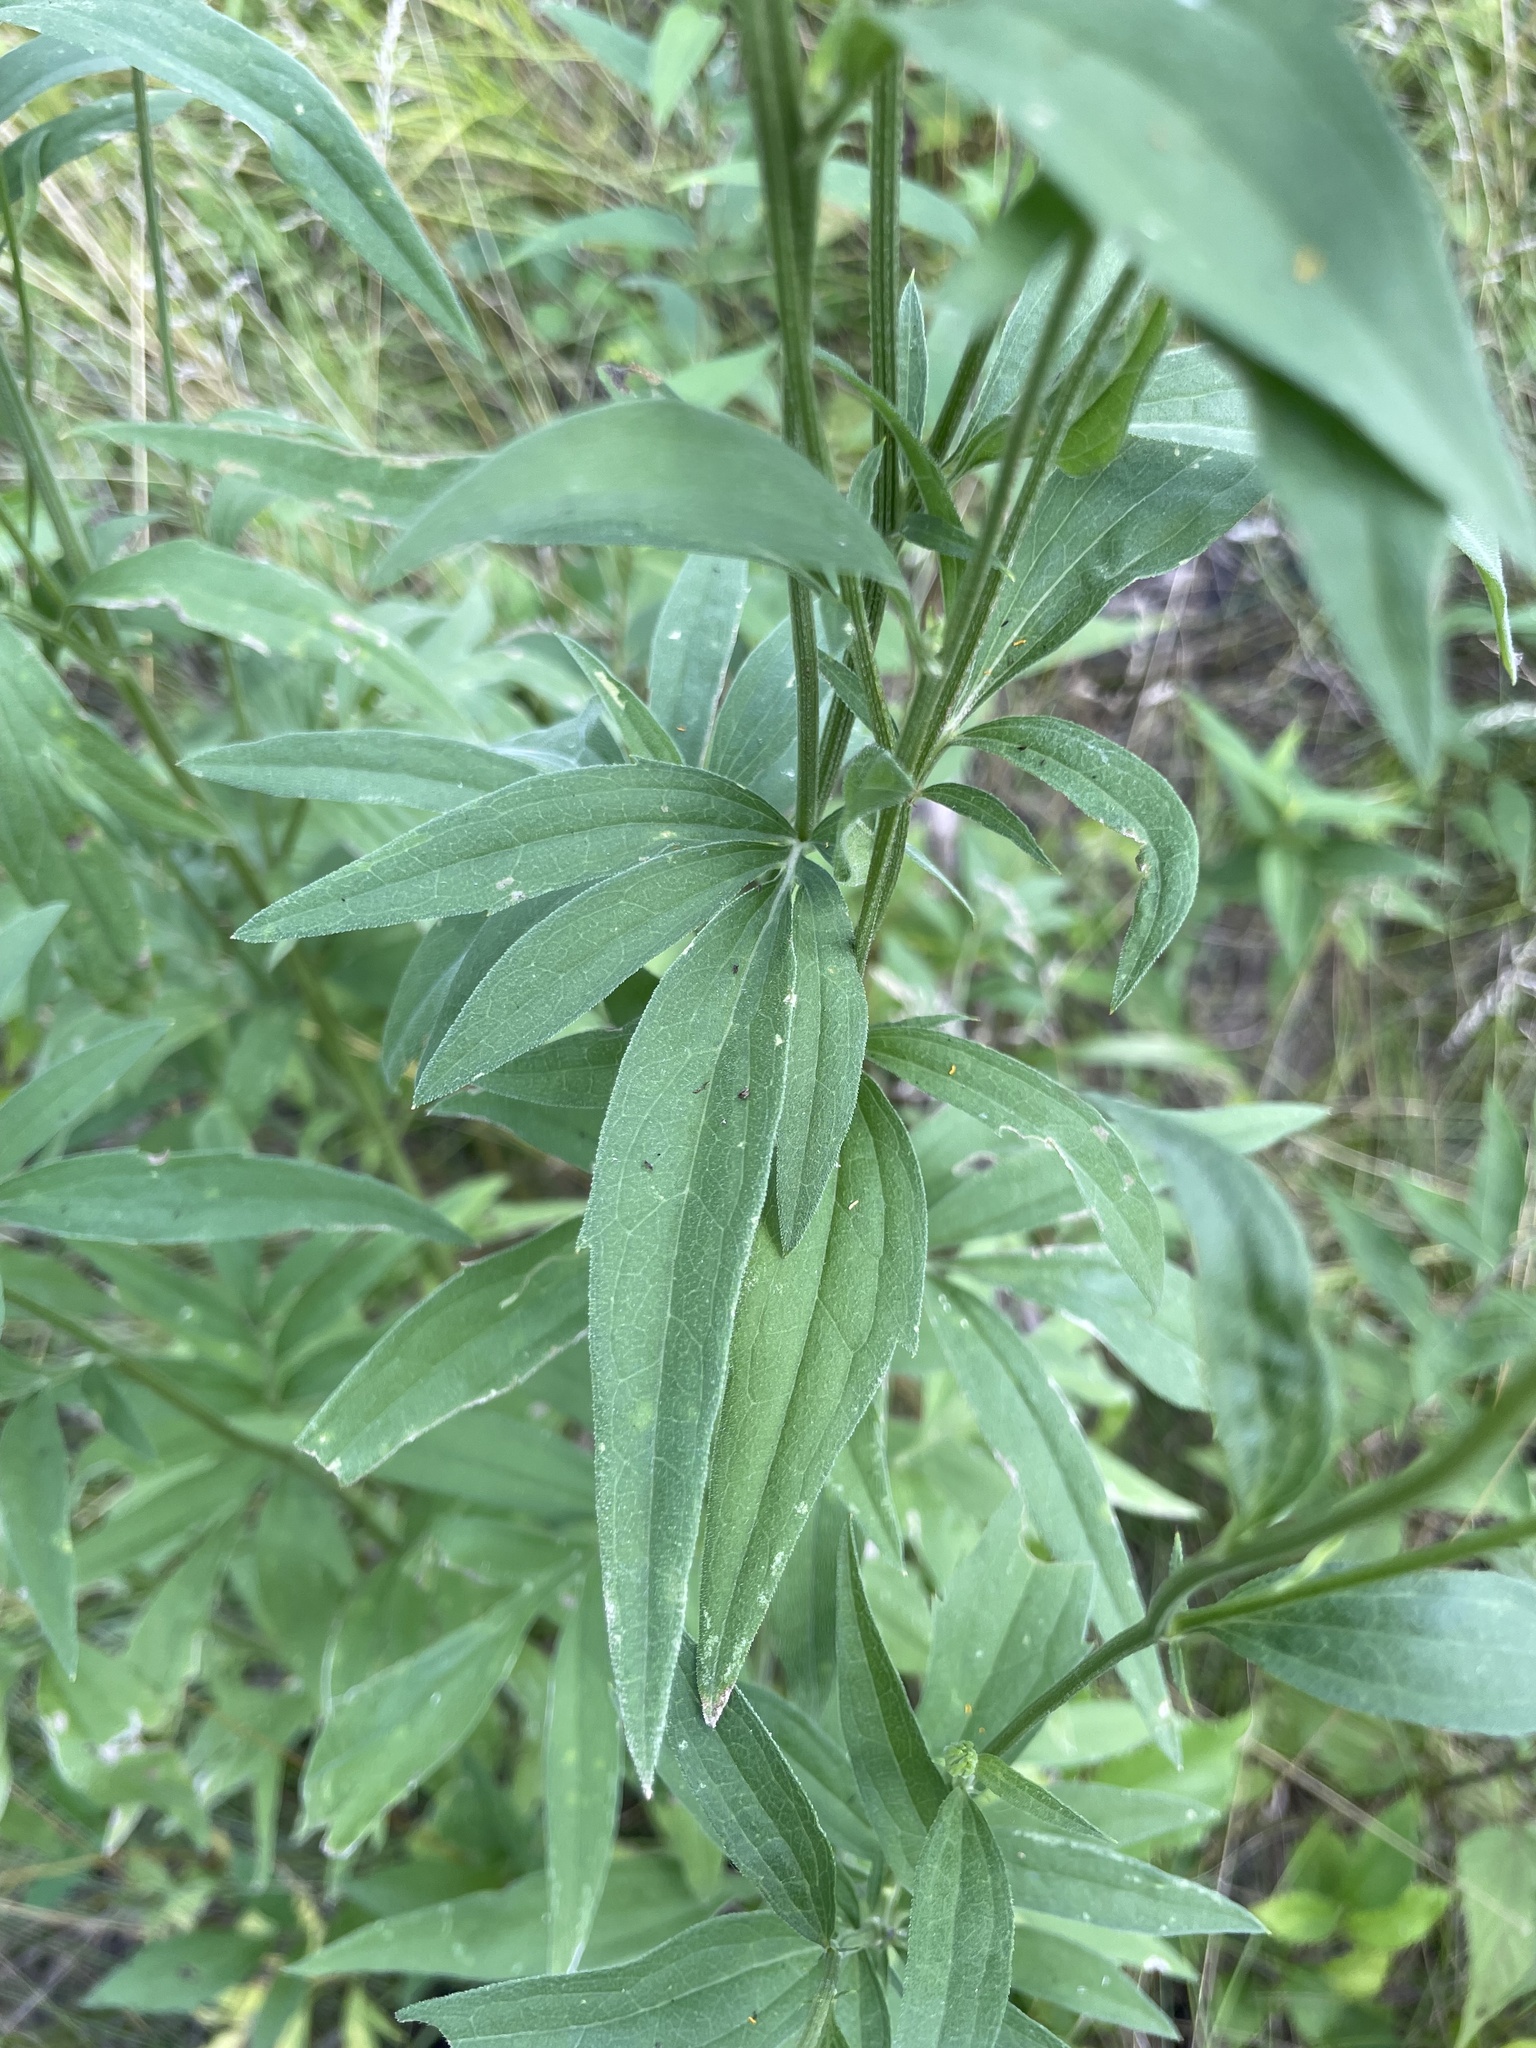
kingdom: Plantae
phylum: Tracheophyta
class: Magnoliopsida
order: Asterales
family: Asteraceae
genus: Ratibida
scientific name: Ratibida pinnata
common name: Drooping prairie-coneflower
